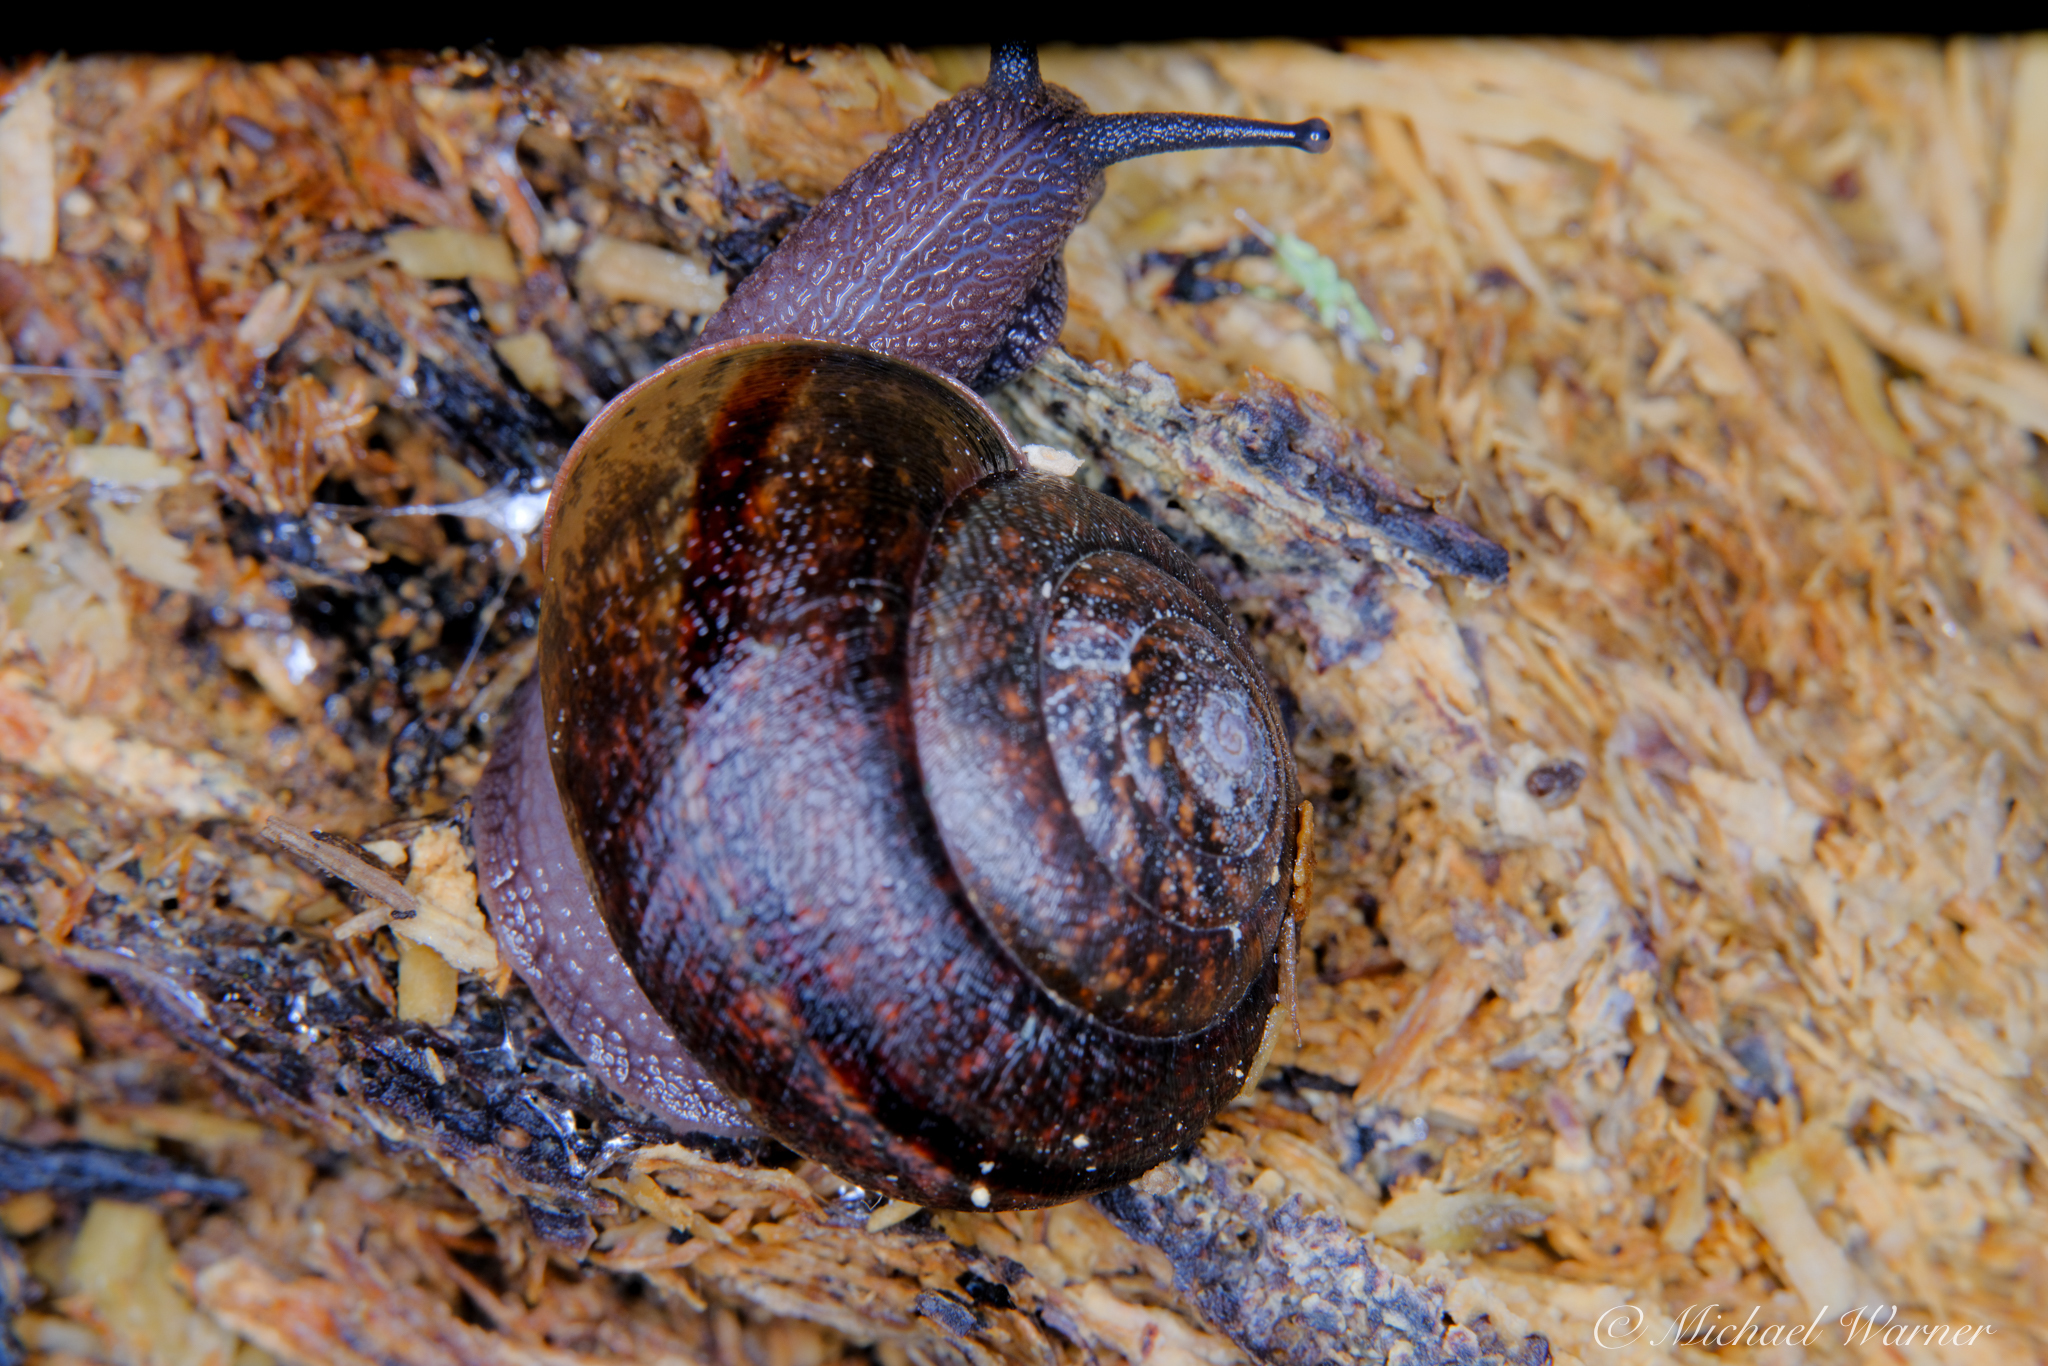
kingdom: Animalia
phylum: Mollusca
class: Gastropoda
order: Stylommatophora
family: Xanthonychidae
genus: Helminthoglypta
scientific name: Helminthoglypta diabloensis
